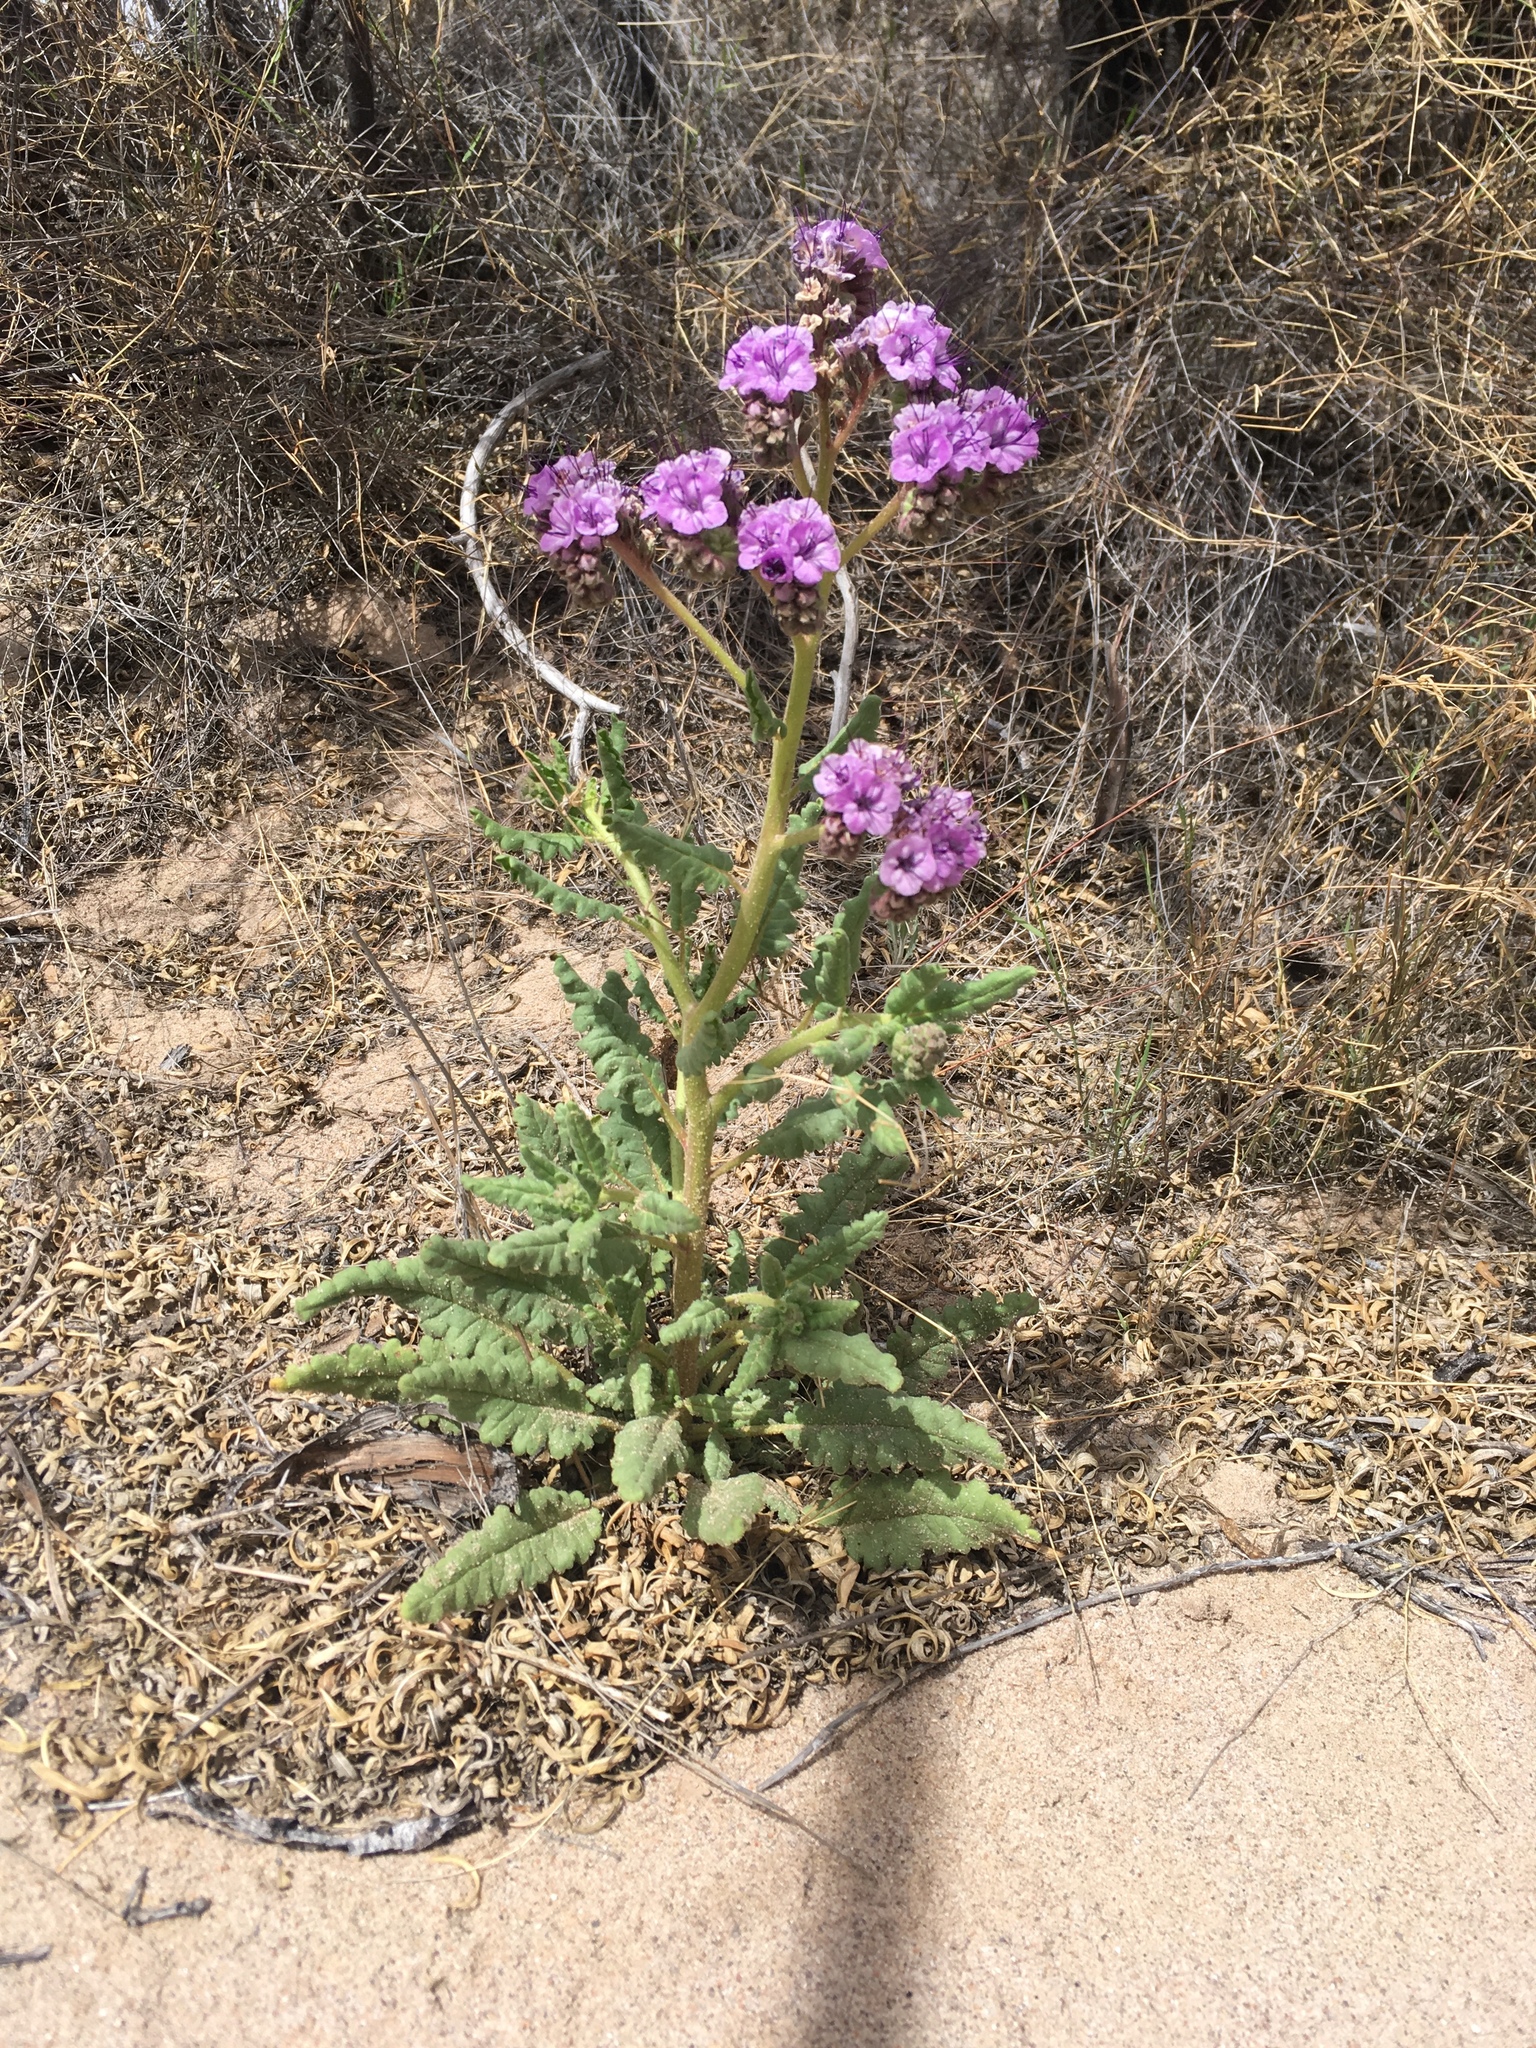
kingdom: Plantae
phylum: Tracheophyta
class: Magnoliopsida
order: Boraginales
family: Hydrophyllaceae
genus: Phacelia
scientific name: Phacelia integrifolia
